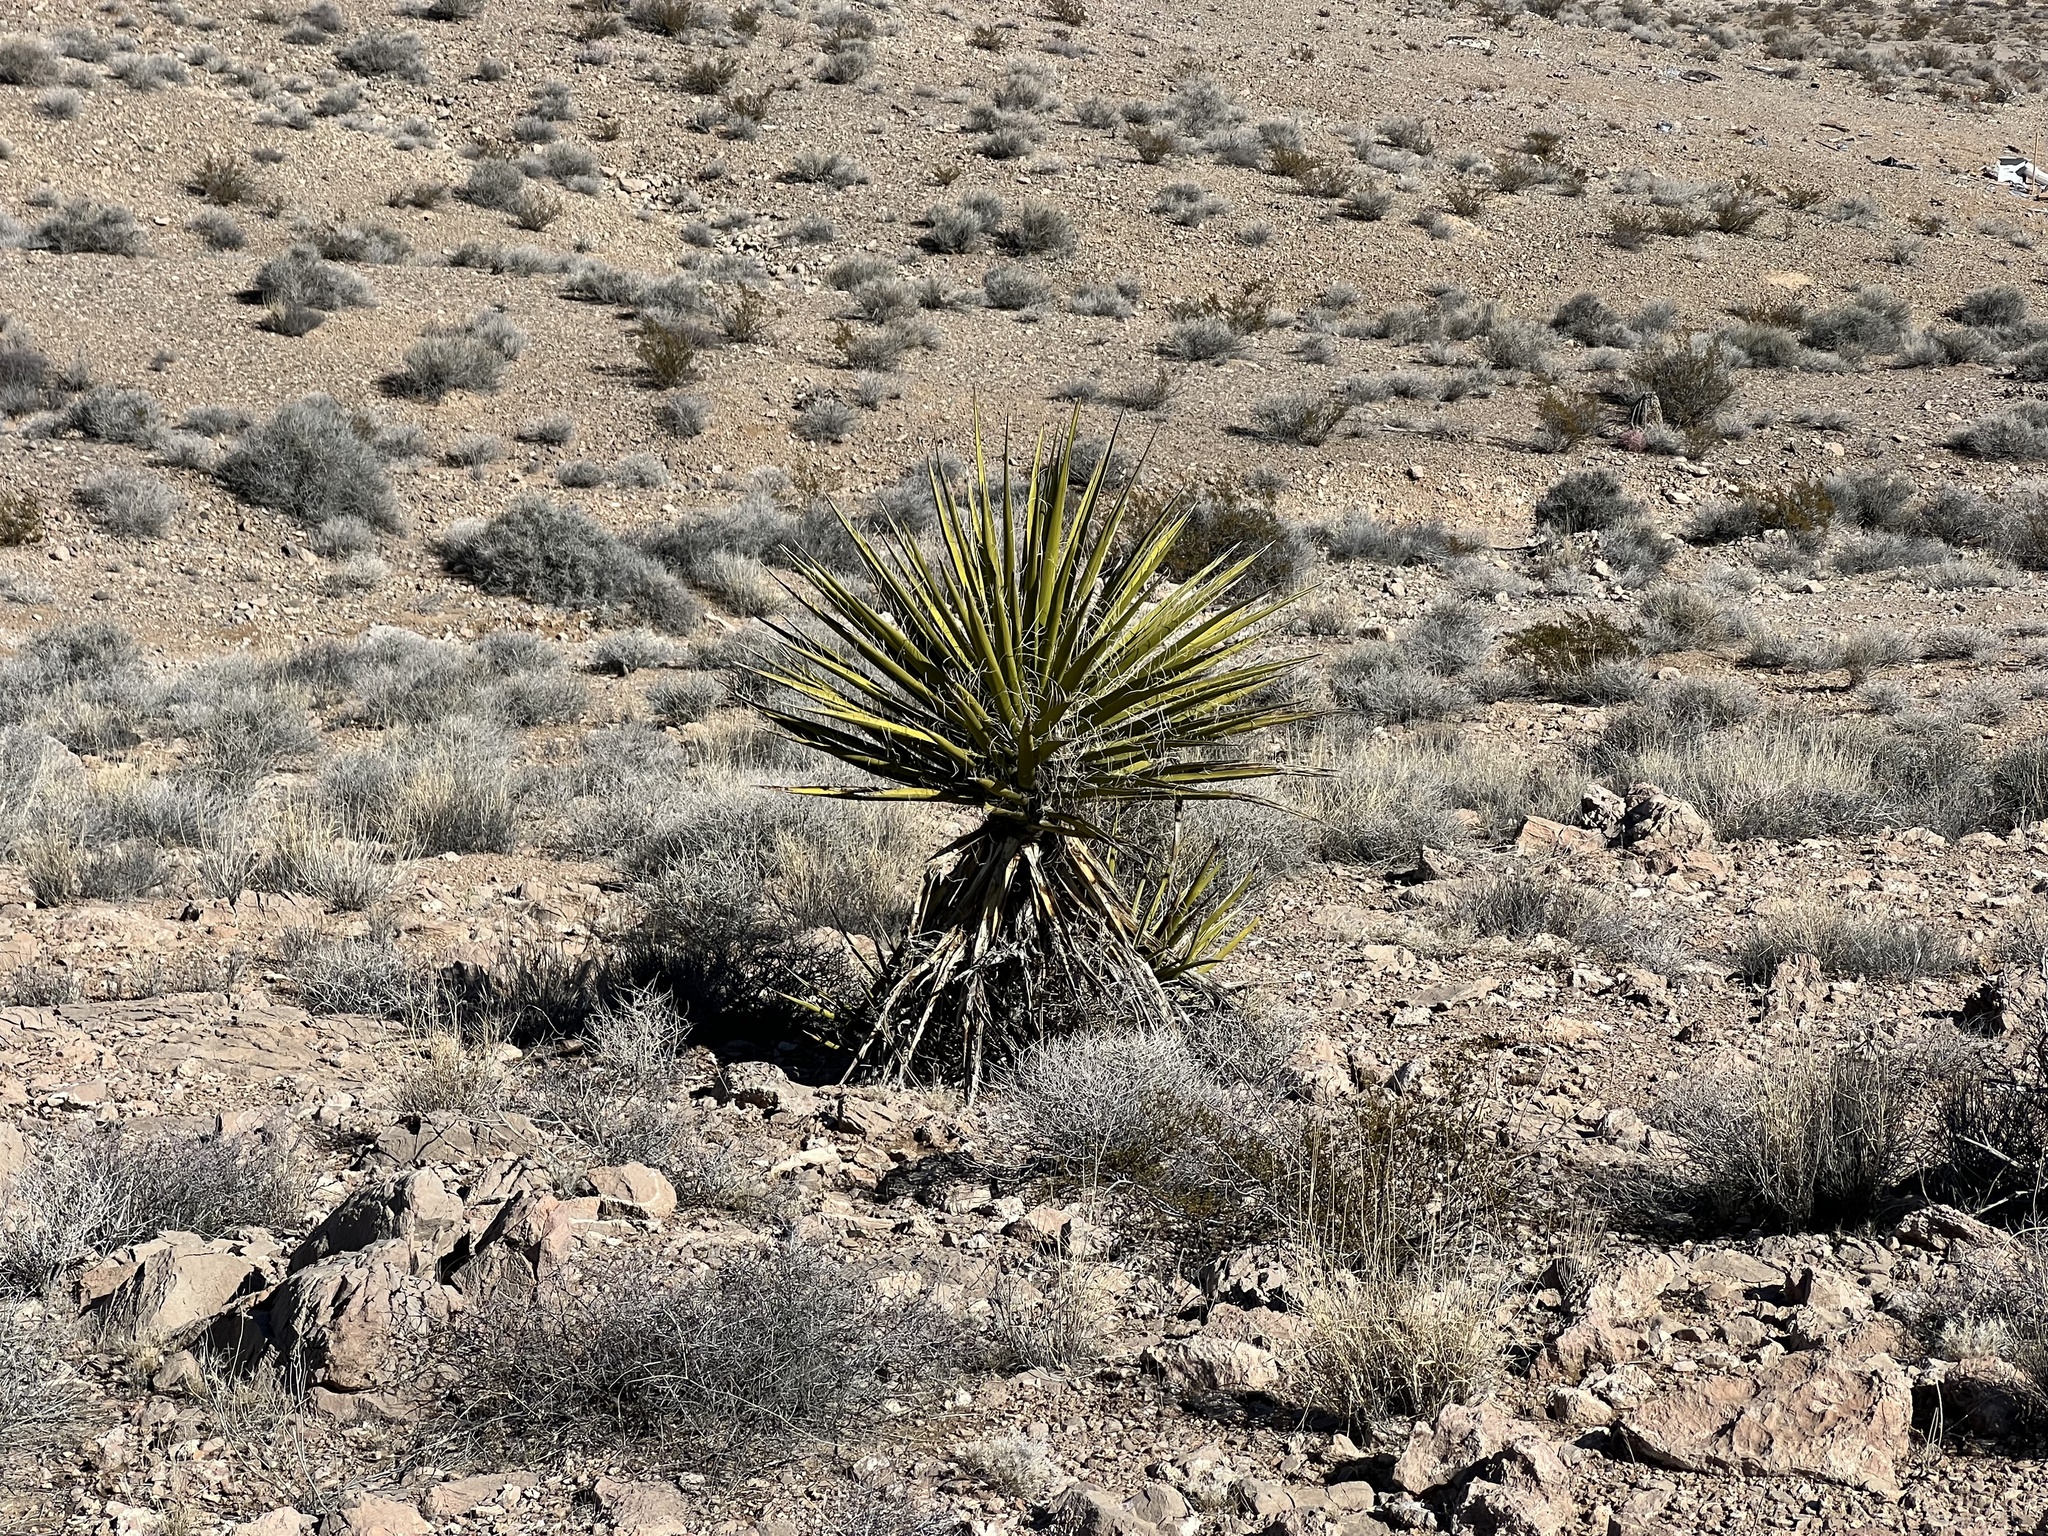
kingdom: Plantae
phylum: Tracheophyta
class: Liliopsida
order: Asparagales
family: Asparagaceae
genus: Yucca
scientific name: Yucca schidigera
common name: Mojave yucca
